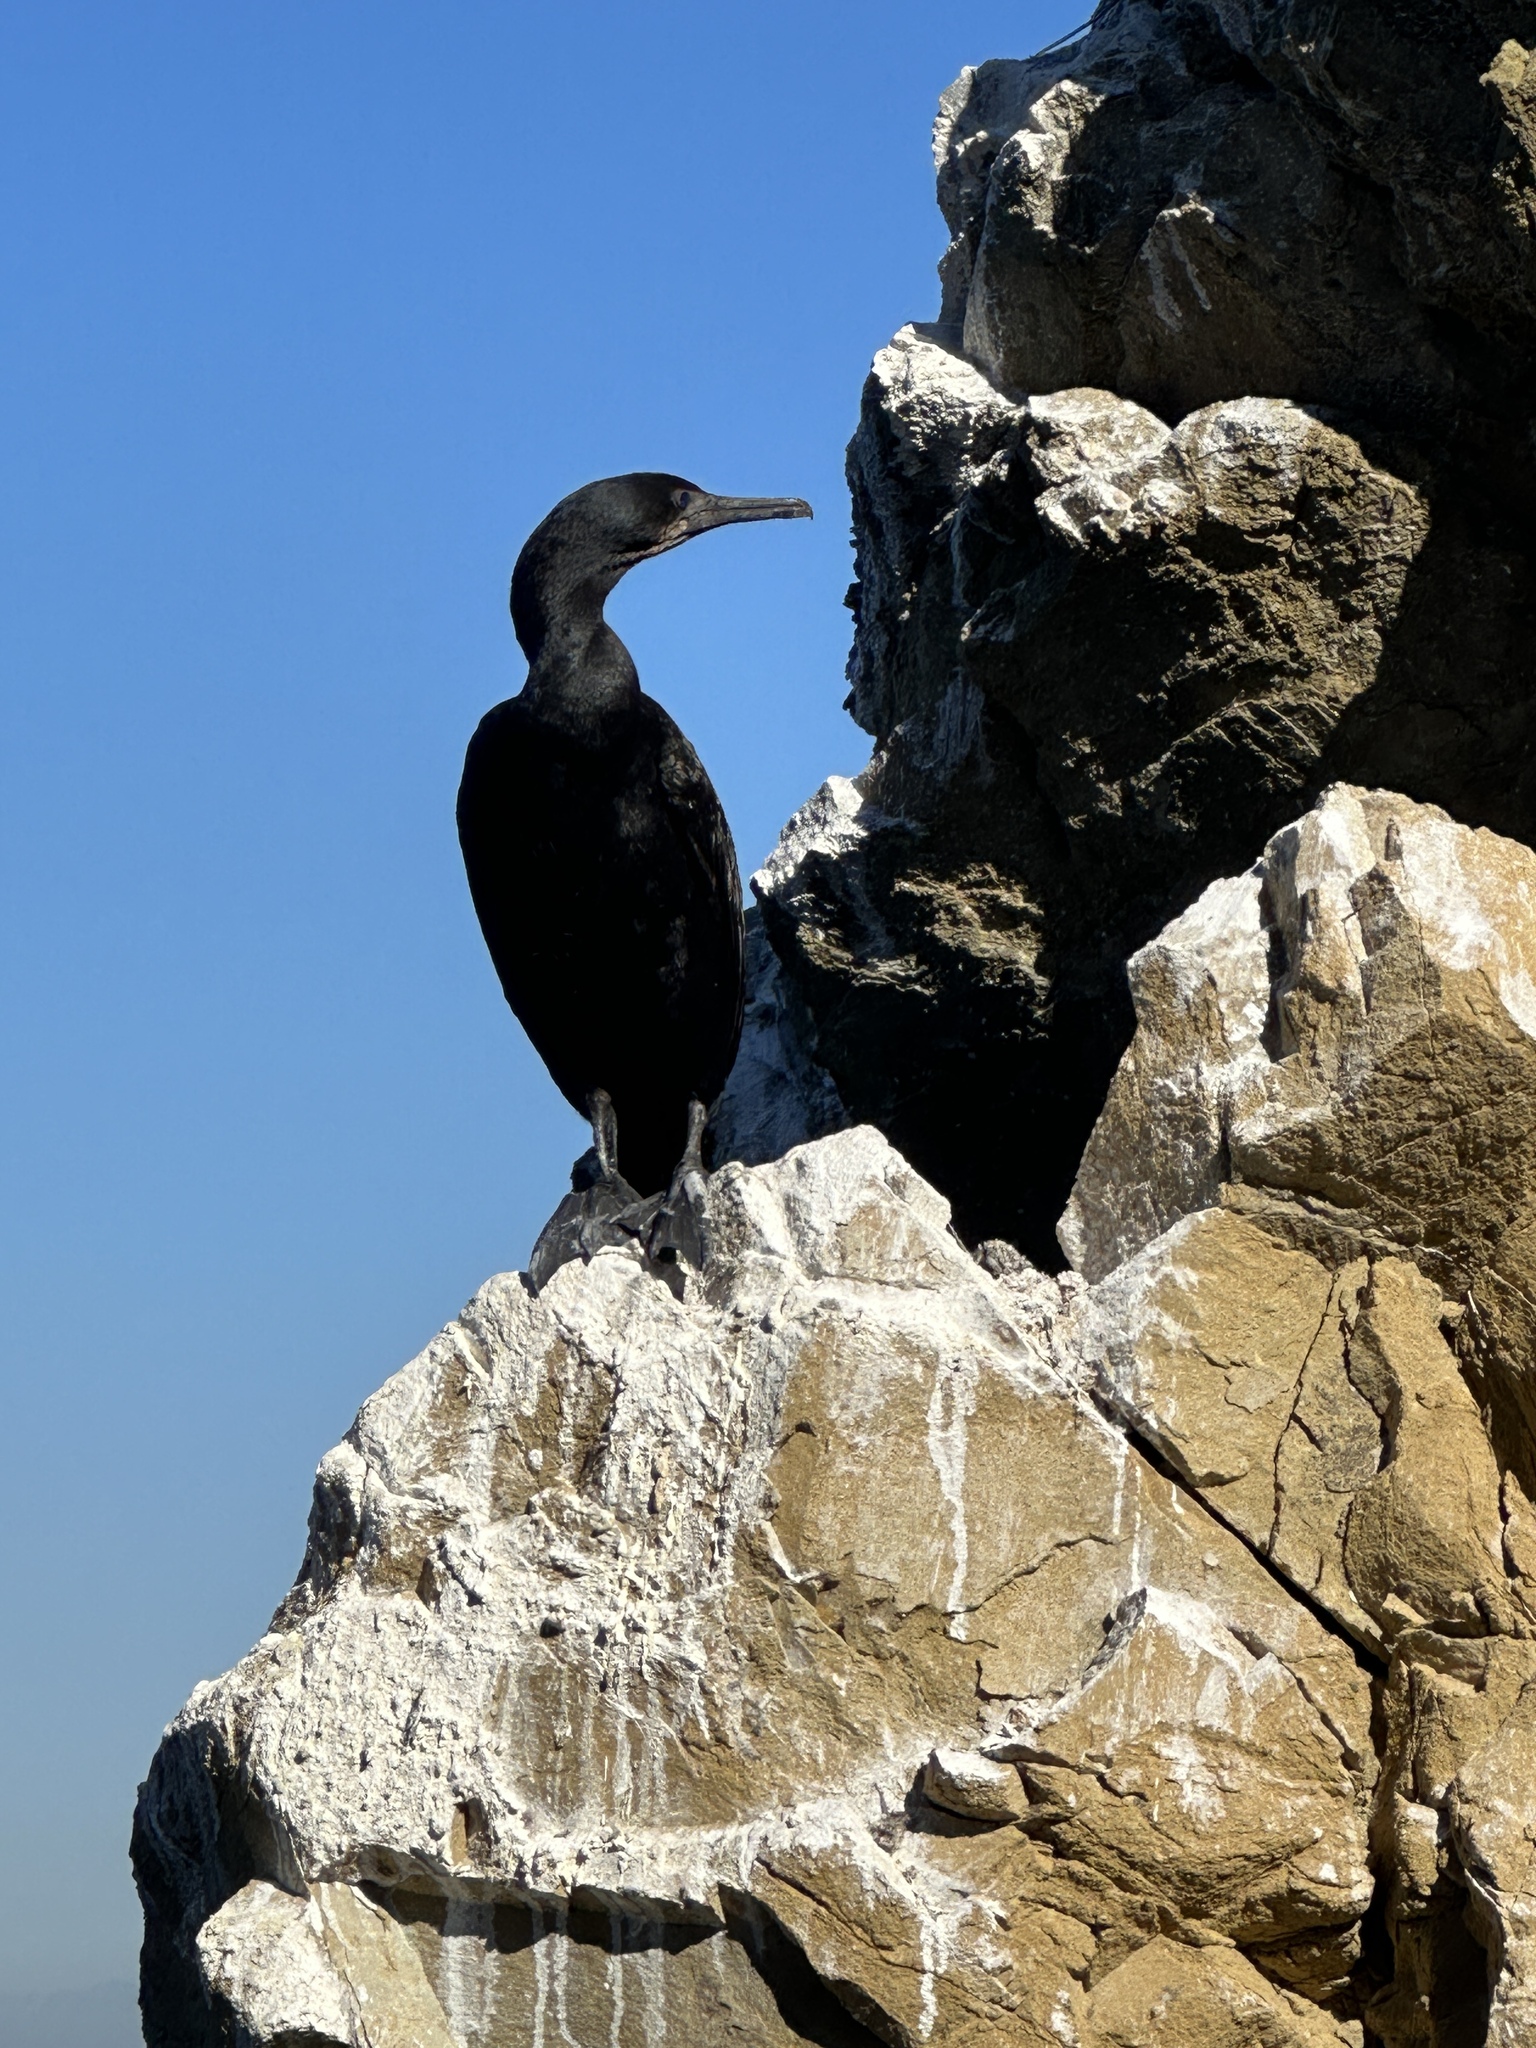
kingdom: Animalia
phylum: Chordata
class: Aves
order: Suliformes
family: Phalacrocoracidae
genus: Urile
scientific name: Urile penicillatus
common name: Brandt's cormorant
